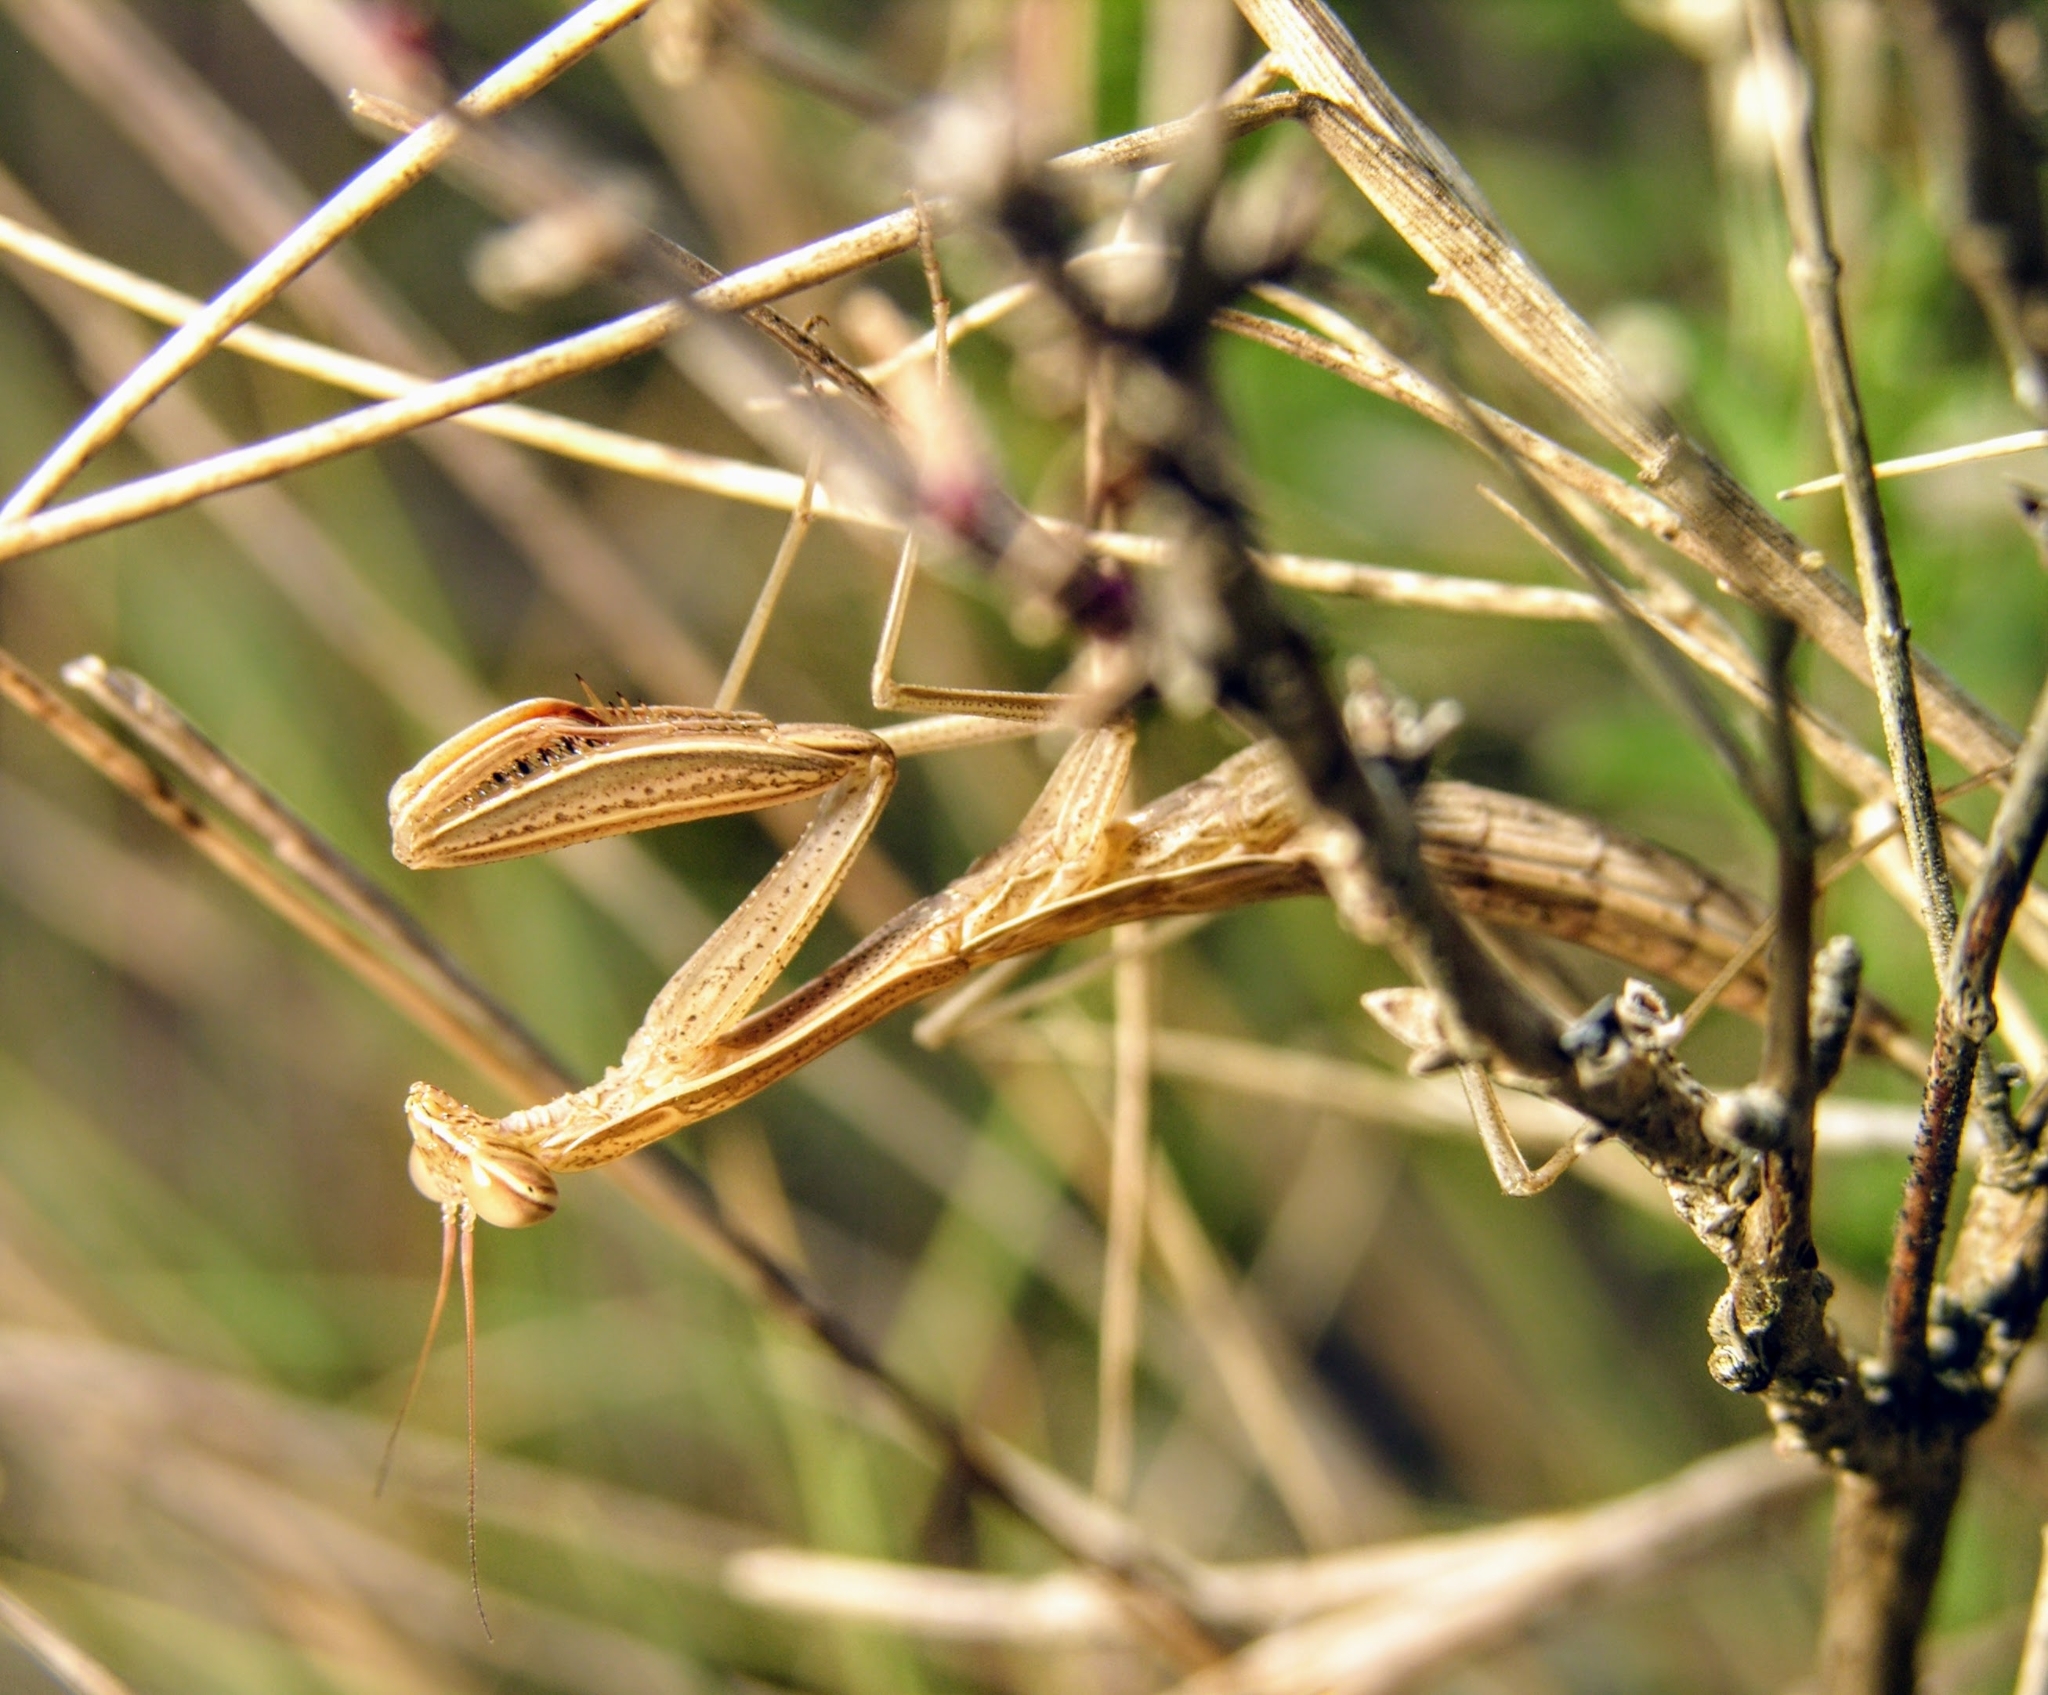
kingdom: Animalia
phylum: Arthropoda
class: Insecta
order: Mantodea
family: Mantidae
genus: Mantis
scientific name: Mantis religiosa
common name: Praying mantis
